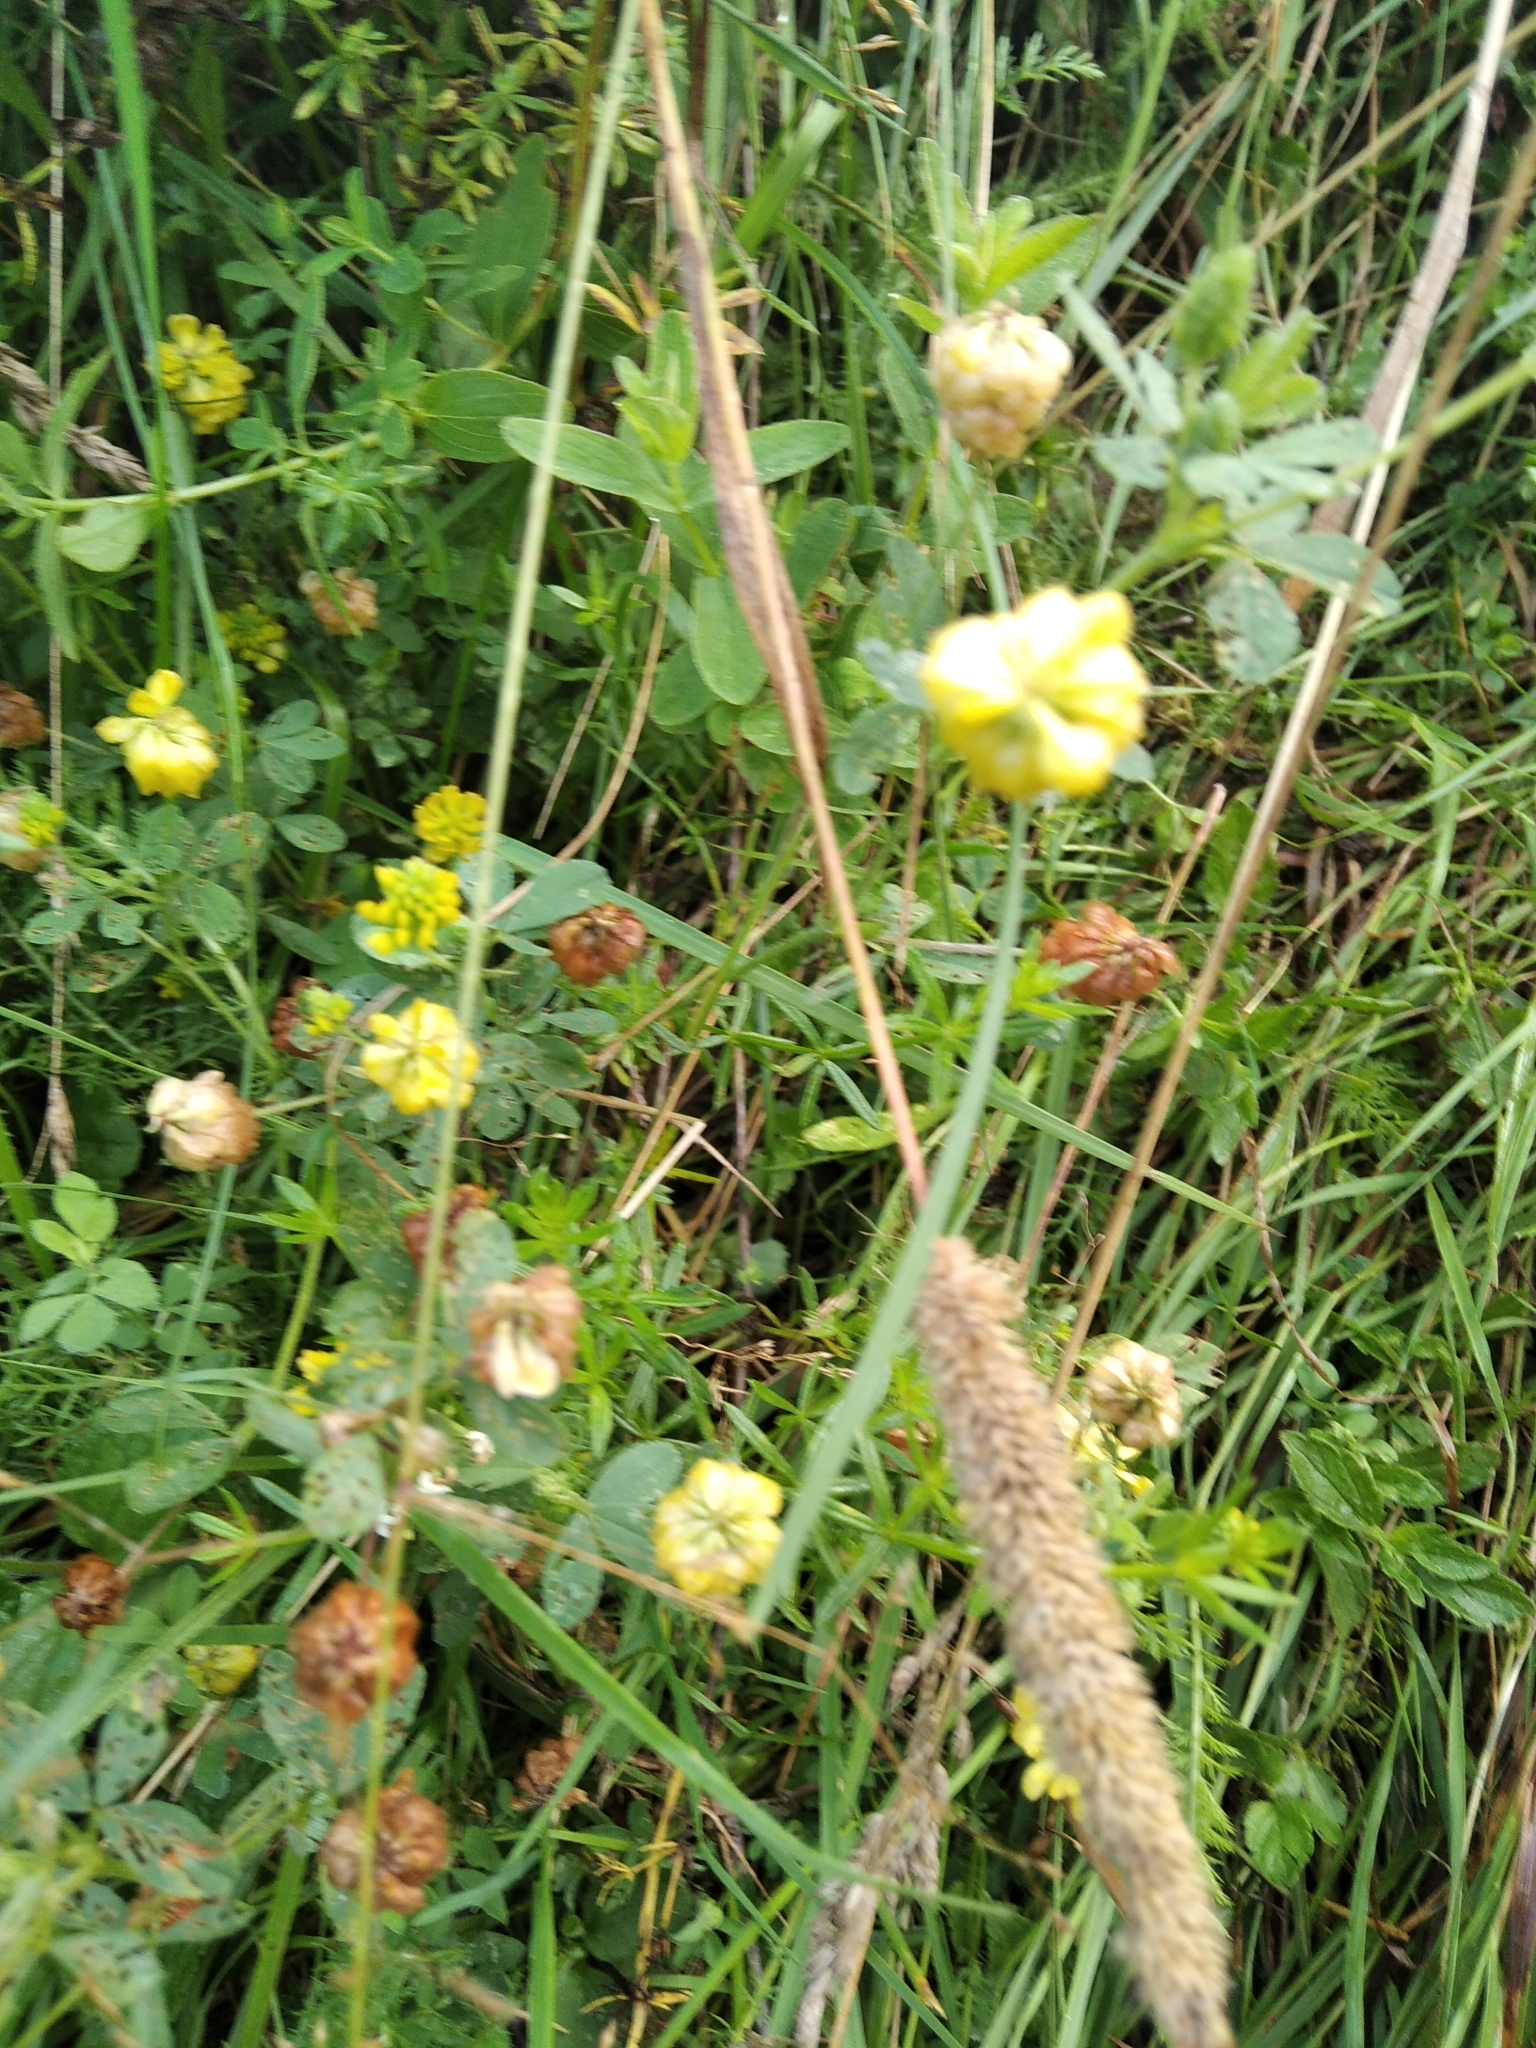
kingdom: Plantae
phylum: Tracheophyta
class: Magnoliopsida
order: Fabales
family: Fabaceae
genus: Trifolium
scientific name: Trifolium aureum
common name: Golden clover
